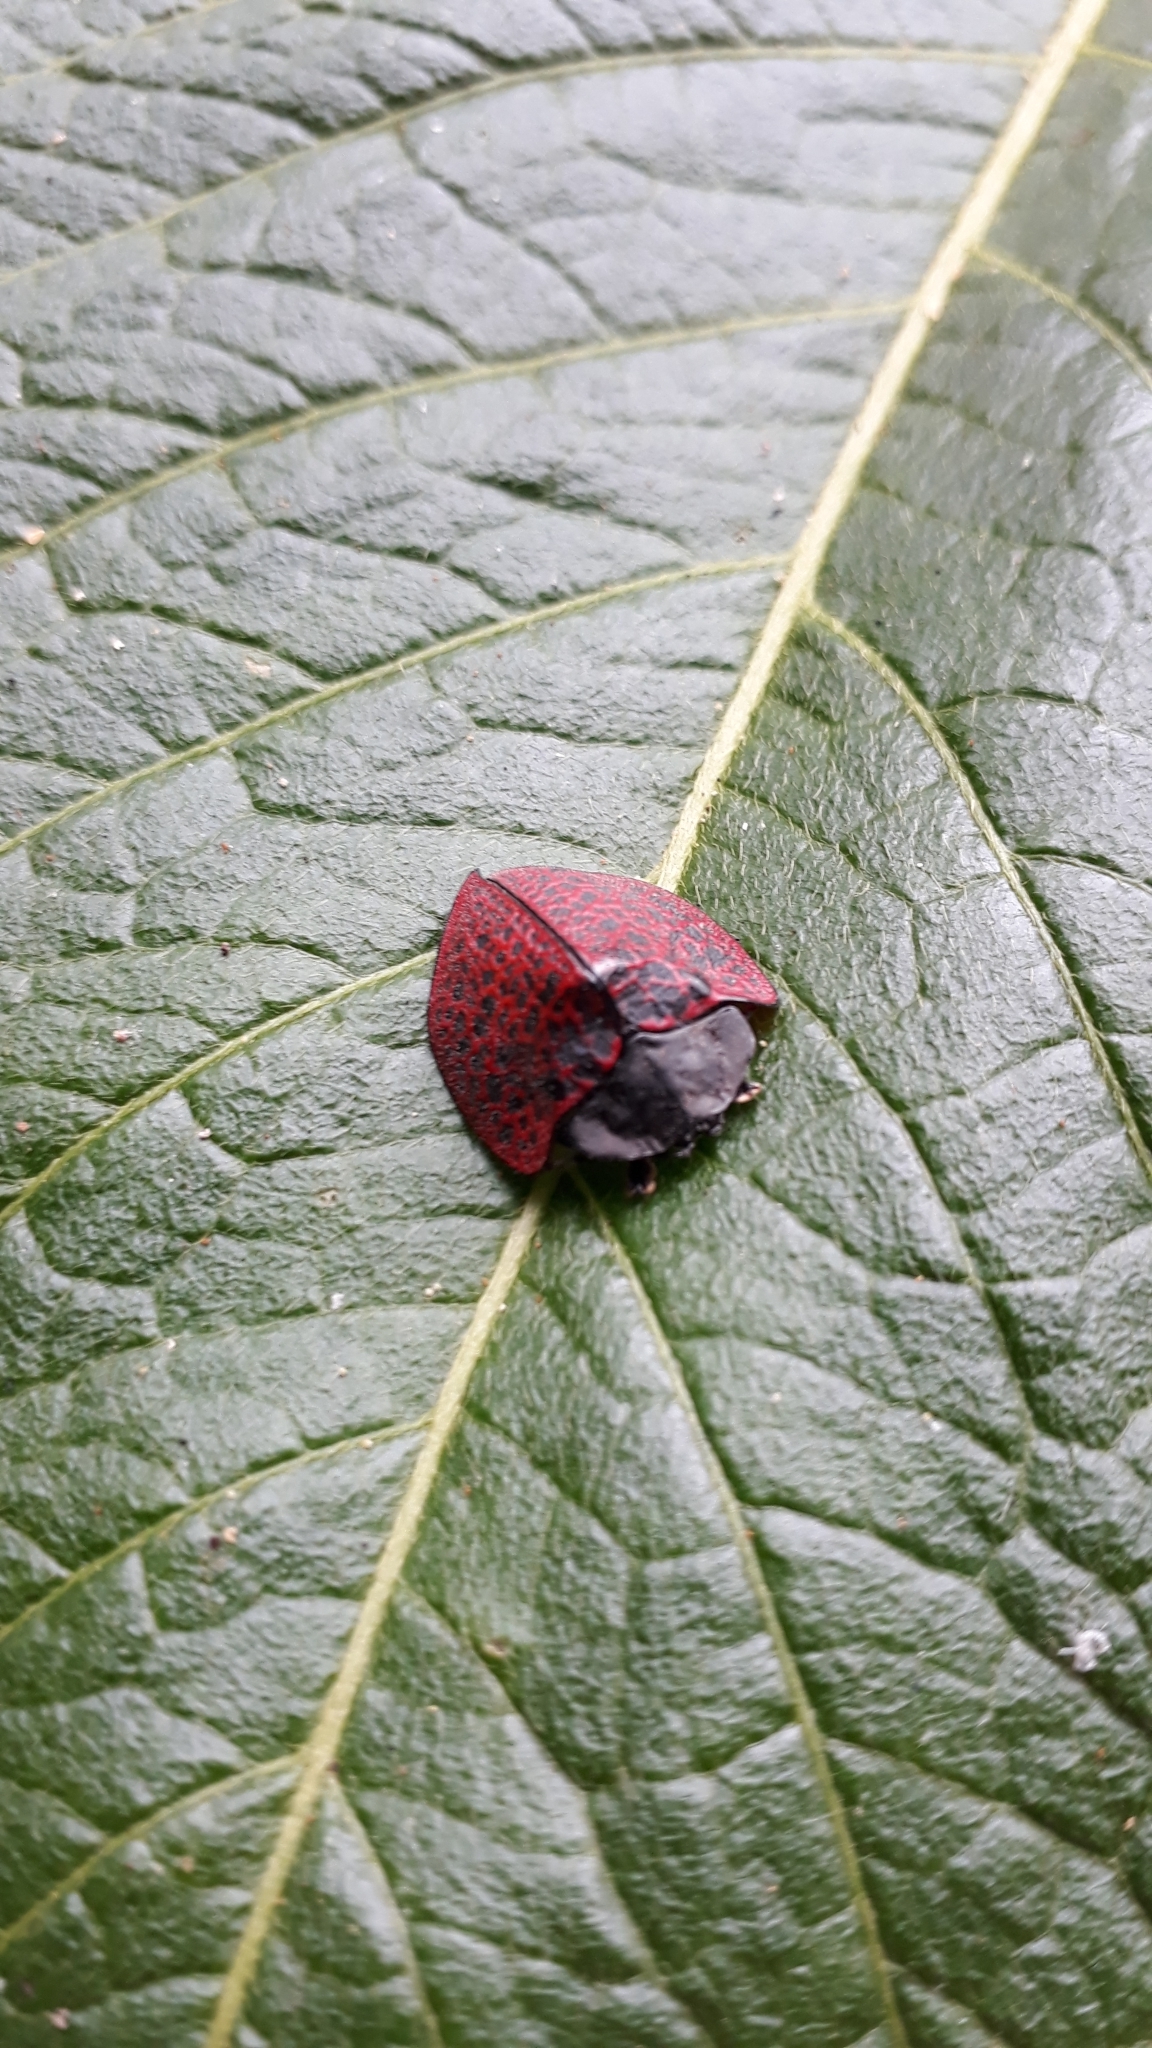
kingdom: Animalia
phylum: Arthropoda
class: Insecta
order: Coleoptera
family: Chrysomelidae
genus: Cyrtonota
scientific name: Cyrtonota textilis
